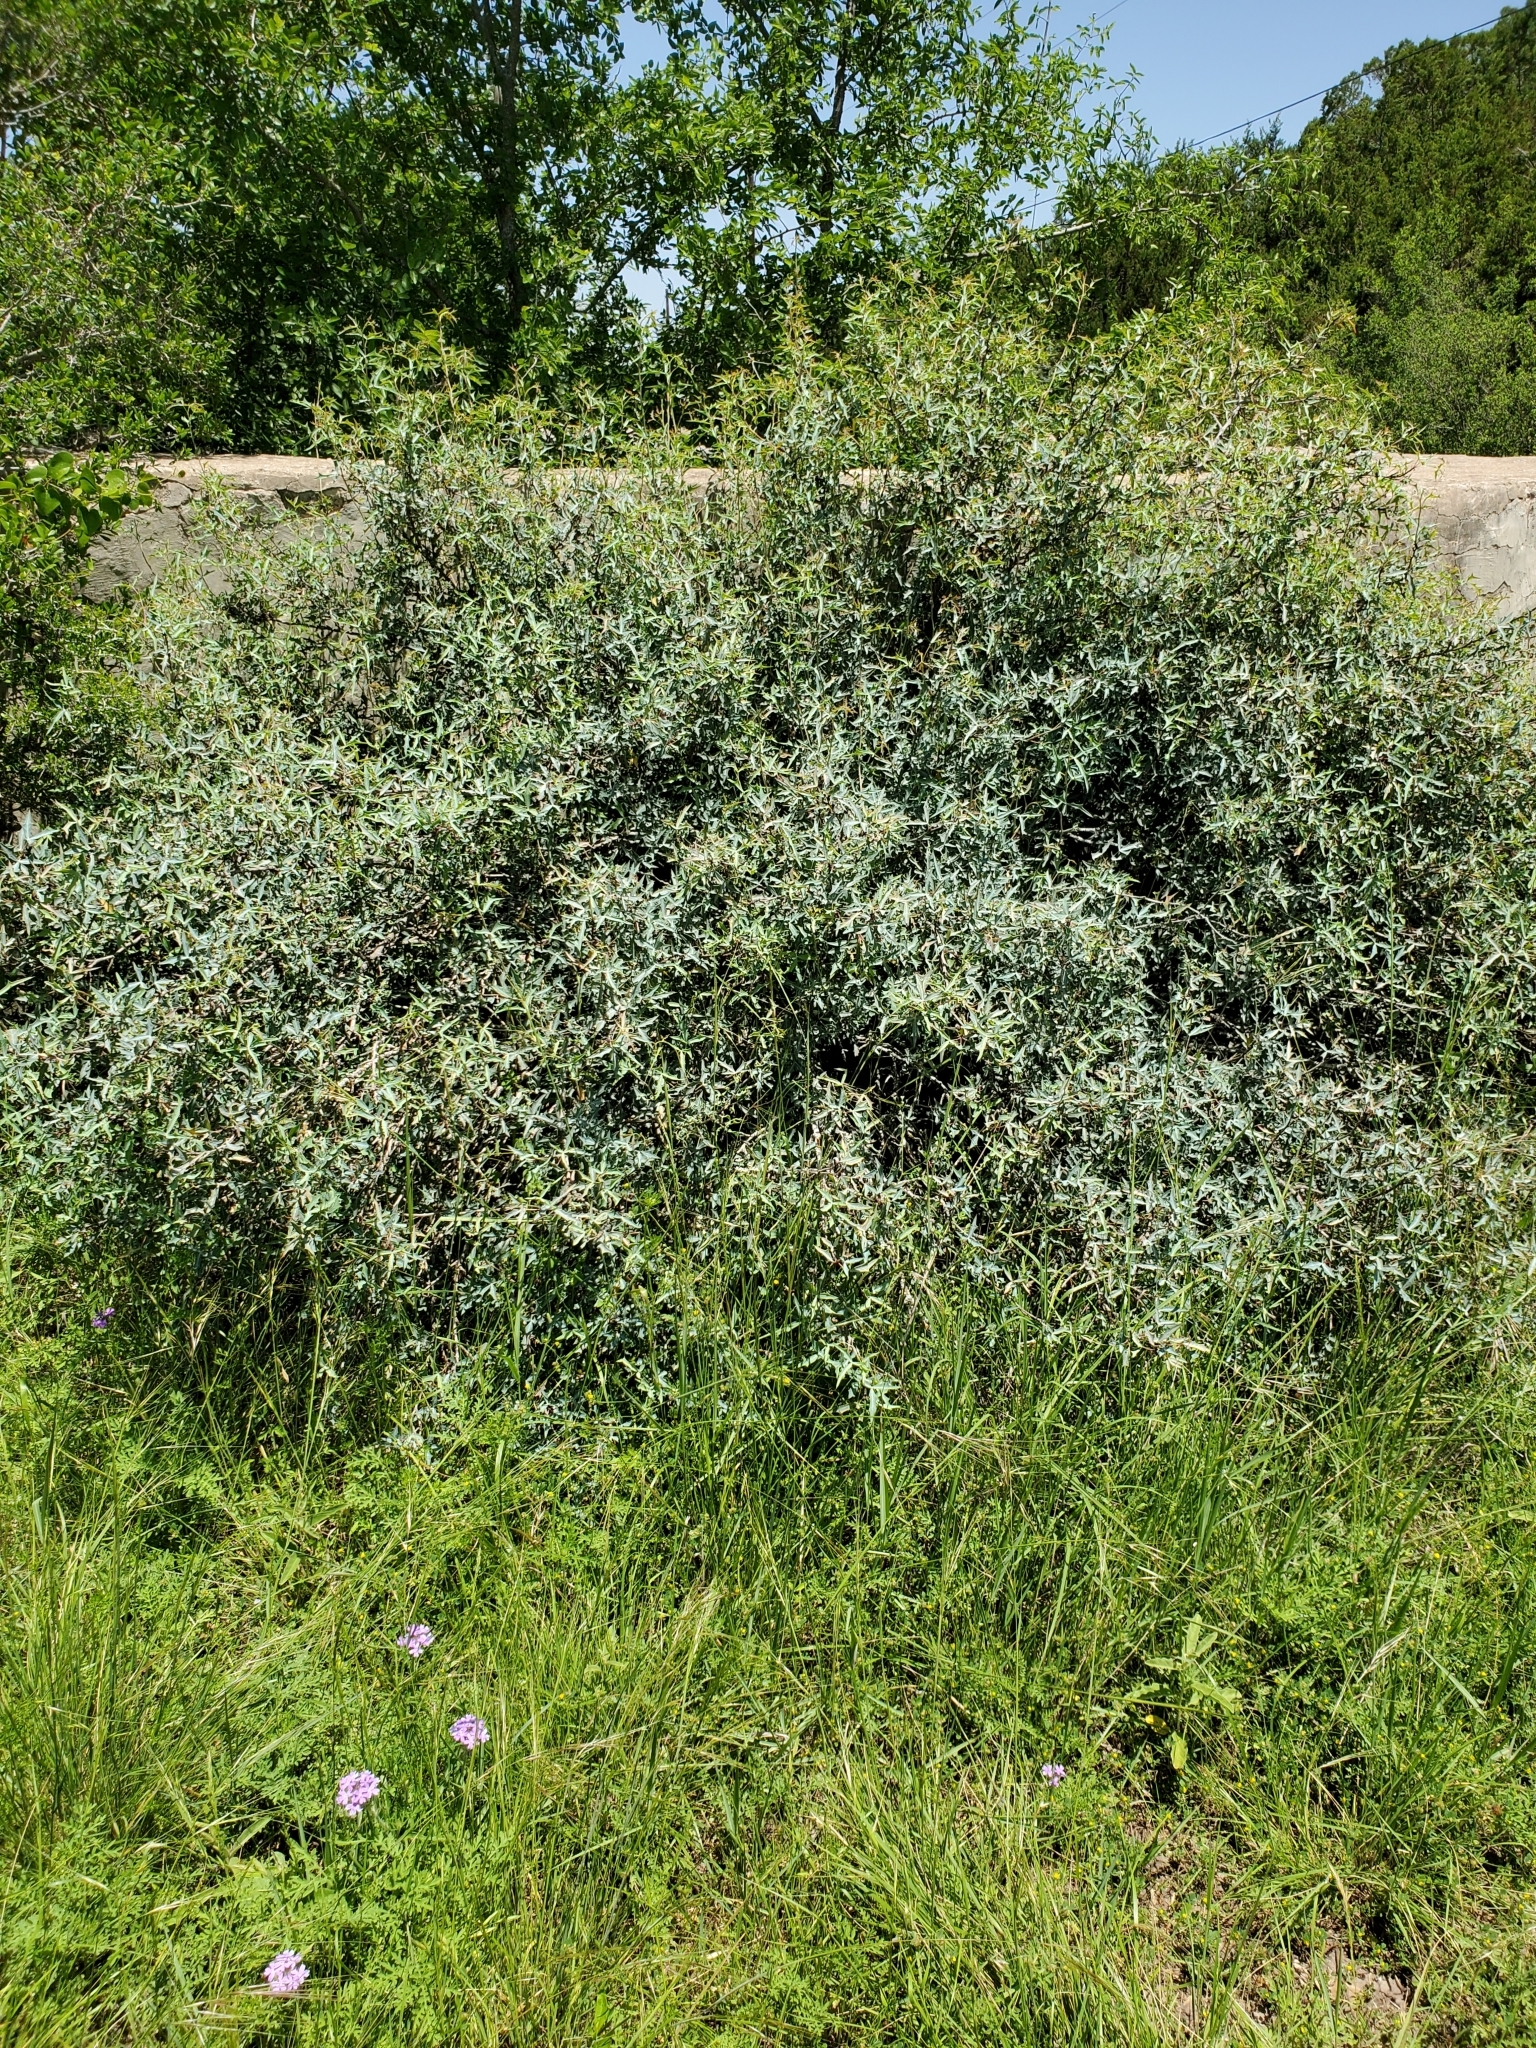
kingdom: Plantae
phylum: Tracheophyta
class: Magnoliopsida
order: Ranunculales
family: Berberidaceae
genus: Alloberberis
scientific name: Alloberberis trifoliolata
